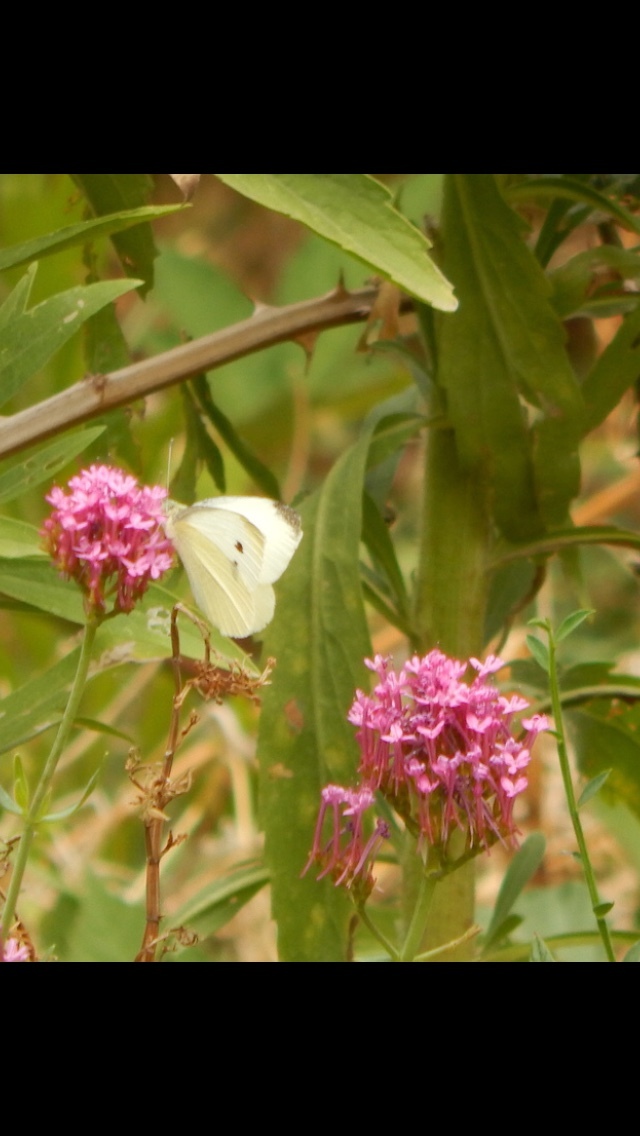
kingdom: Plantae
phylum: Tracheophyta
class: Magnoliopsida
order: Dipsacales
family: Caprifoliaceae
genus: Centranthus
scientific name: Centranthus ruber
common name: Red valerian
